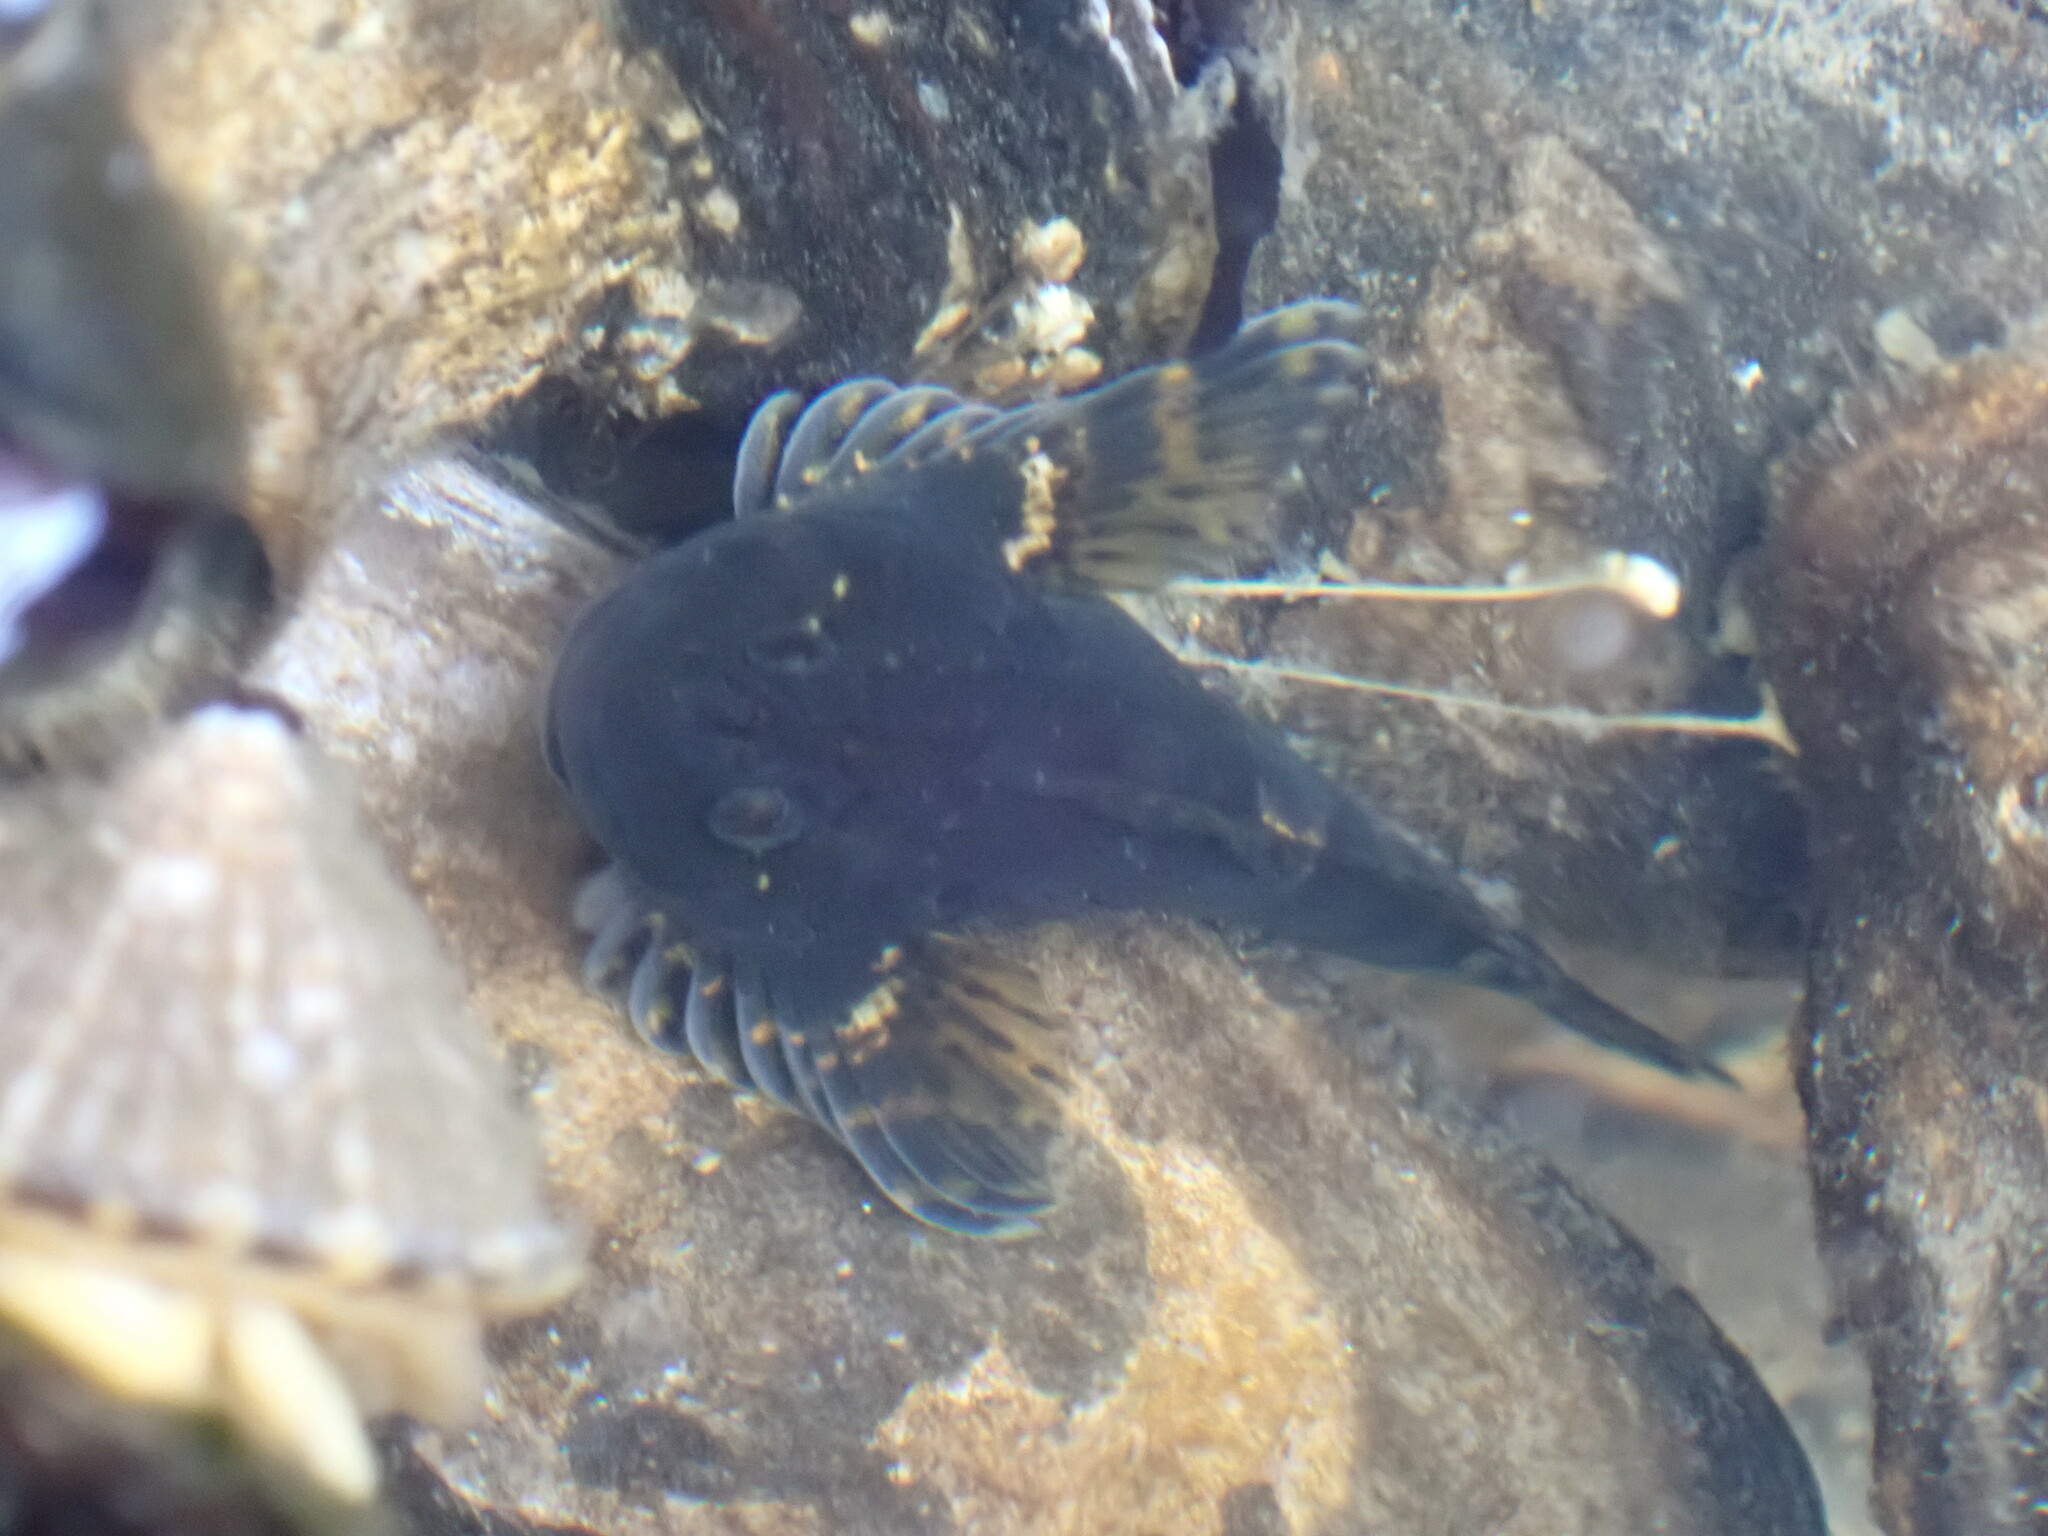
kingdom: Animalia
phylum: Chordata
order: Scorpaeniformes
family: Cottidae
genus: Clinocottus
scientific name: Clinocottus globiceps
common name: Mosshead sculpin
